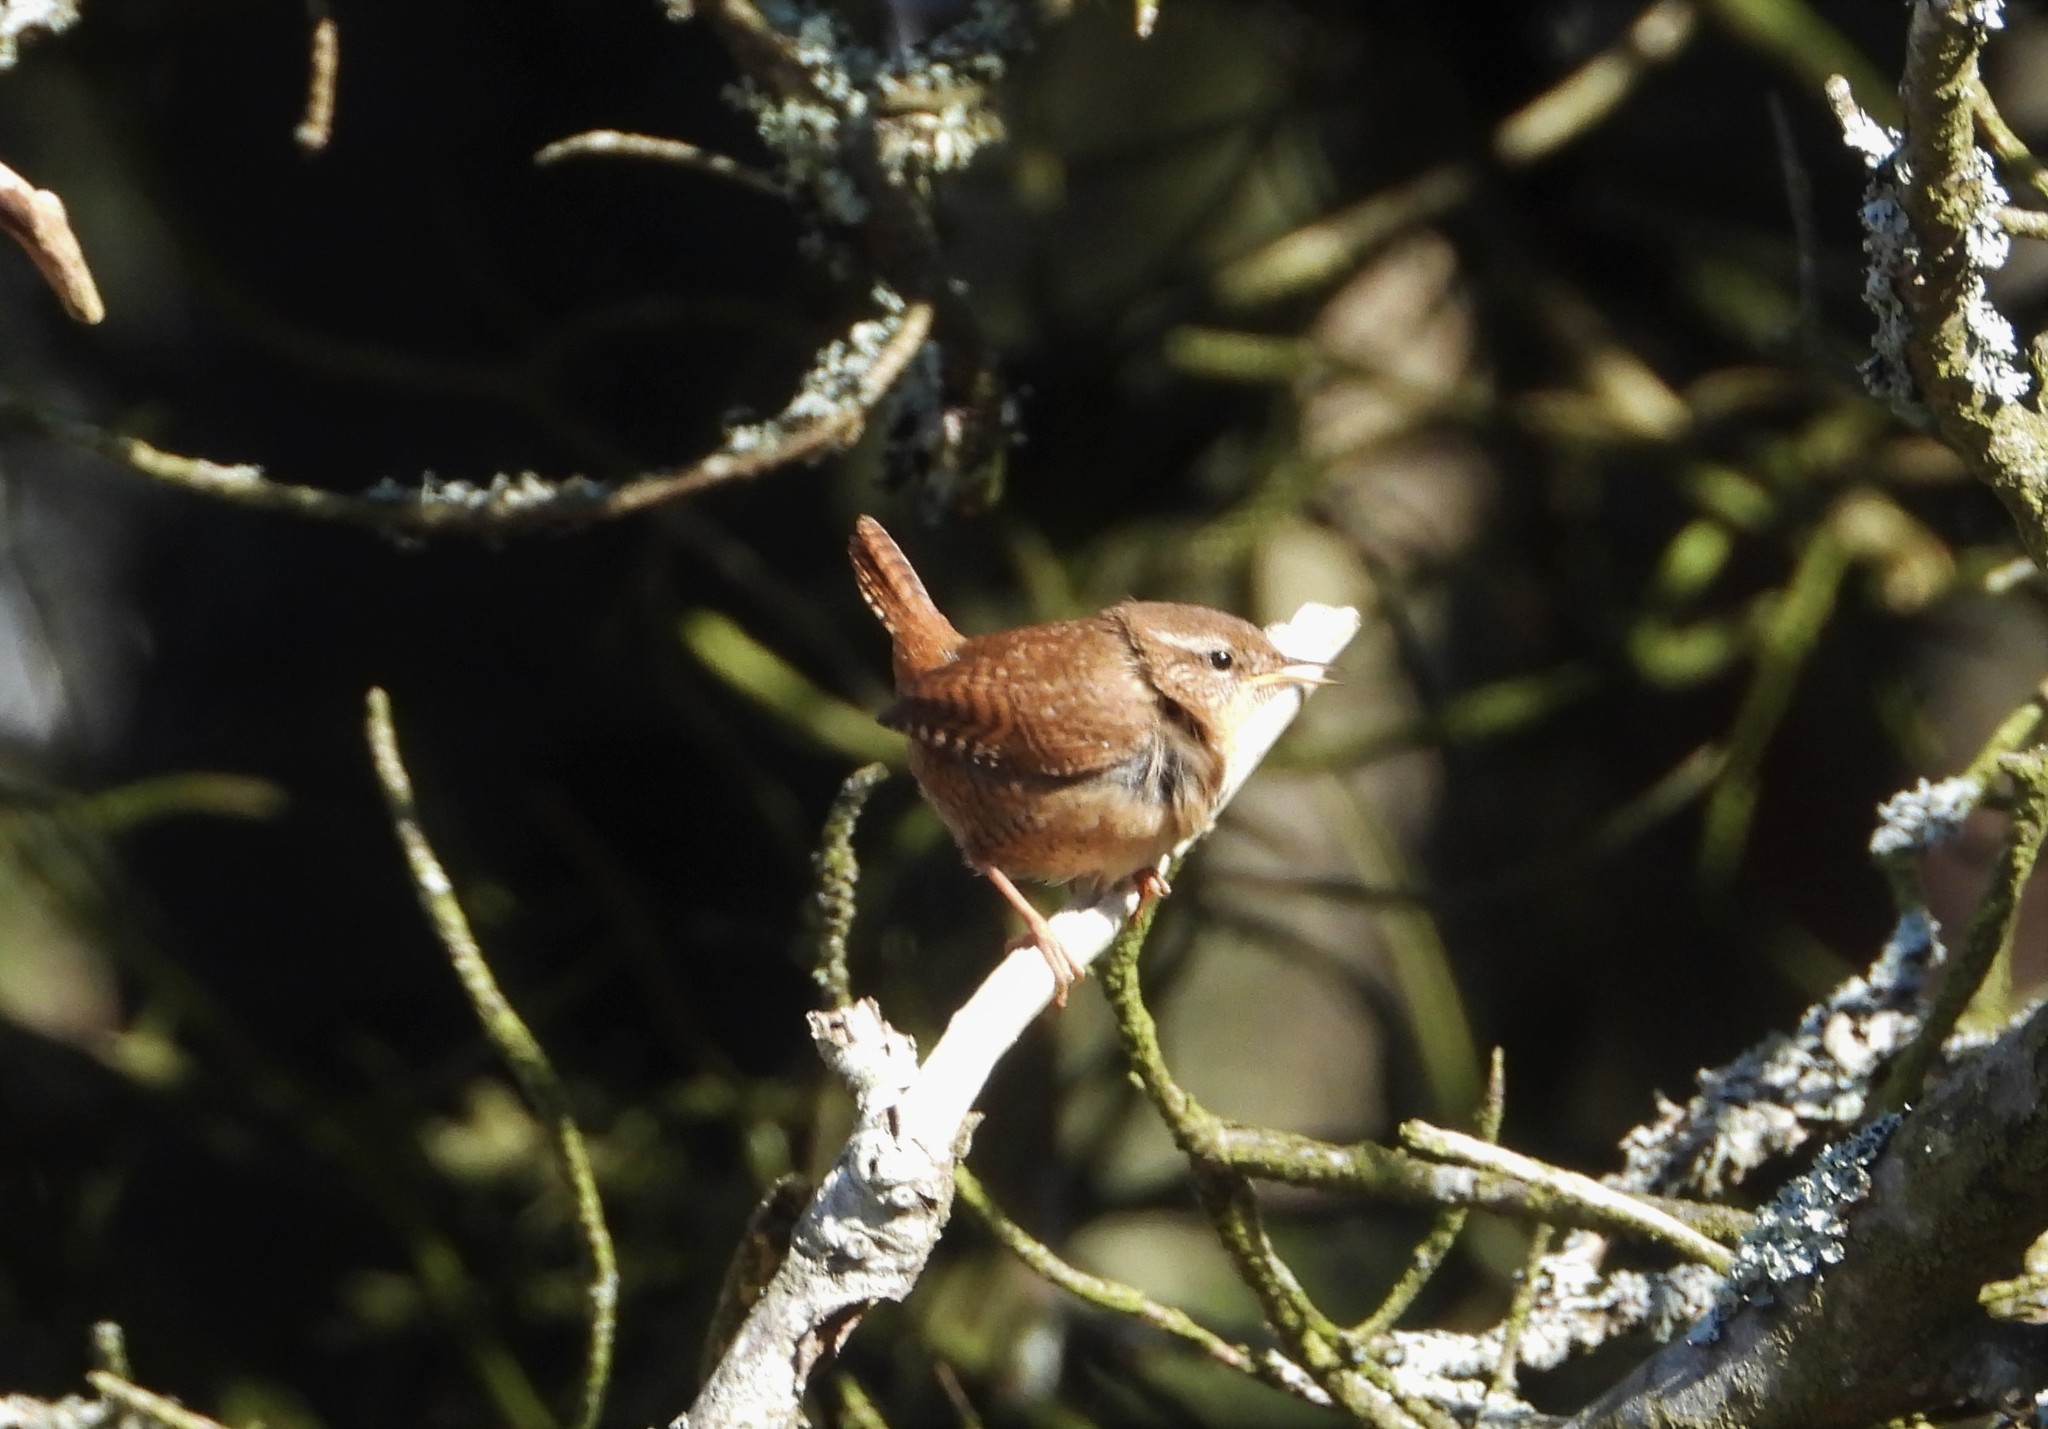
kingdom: Animalia
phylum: Chordata
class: Aves
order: Passeriformes
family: Troglodytidae
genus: Troglodytes
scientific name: Troglodytes troglodytes
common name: Eurasian wren
